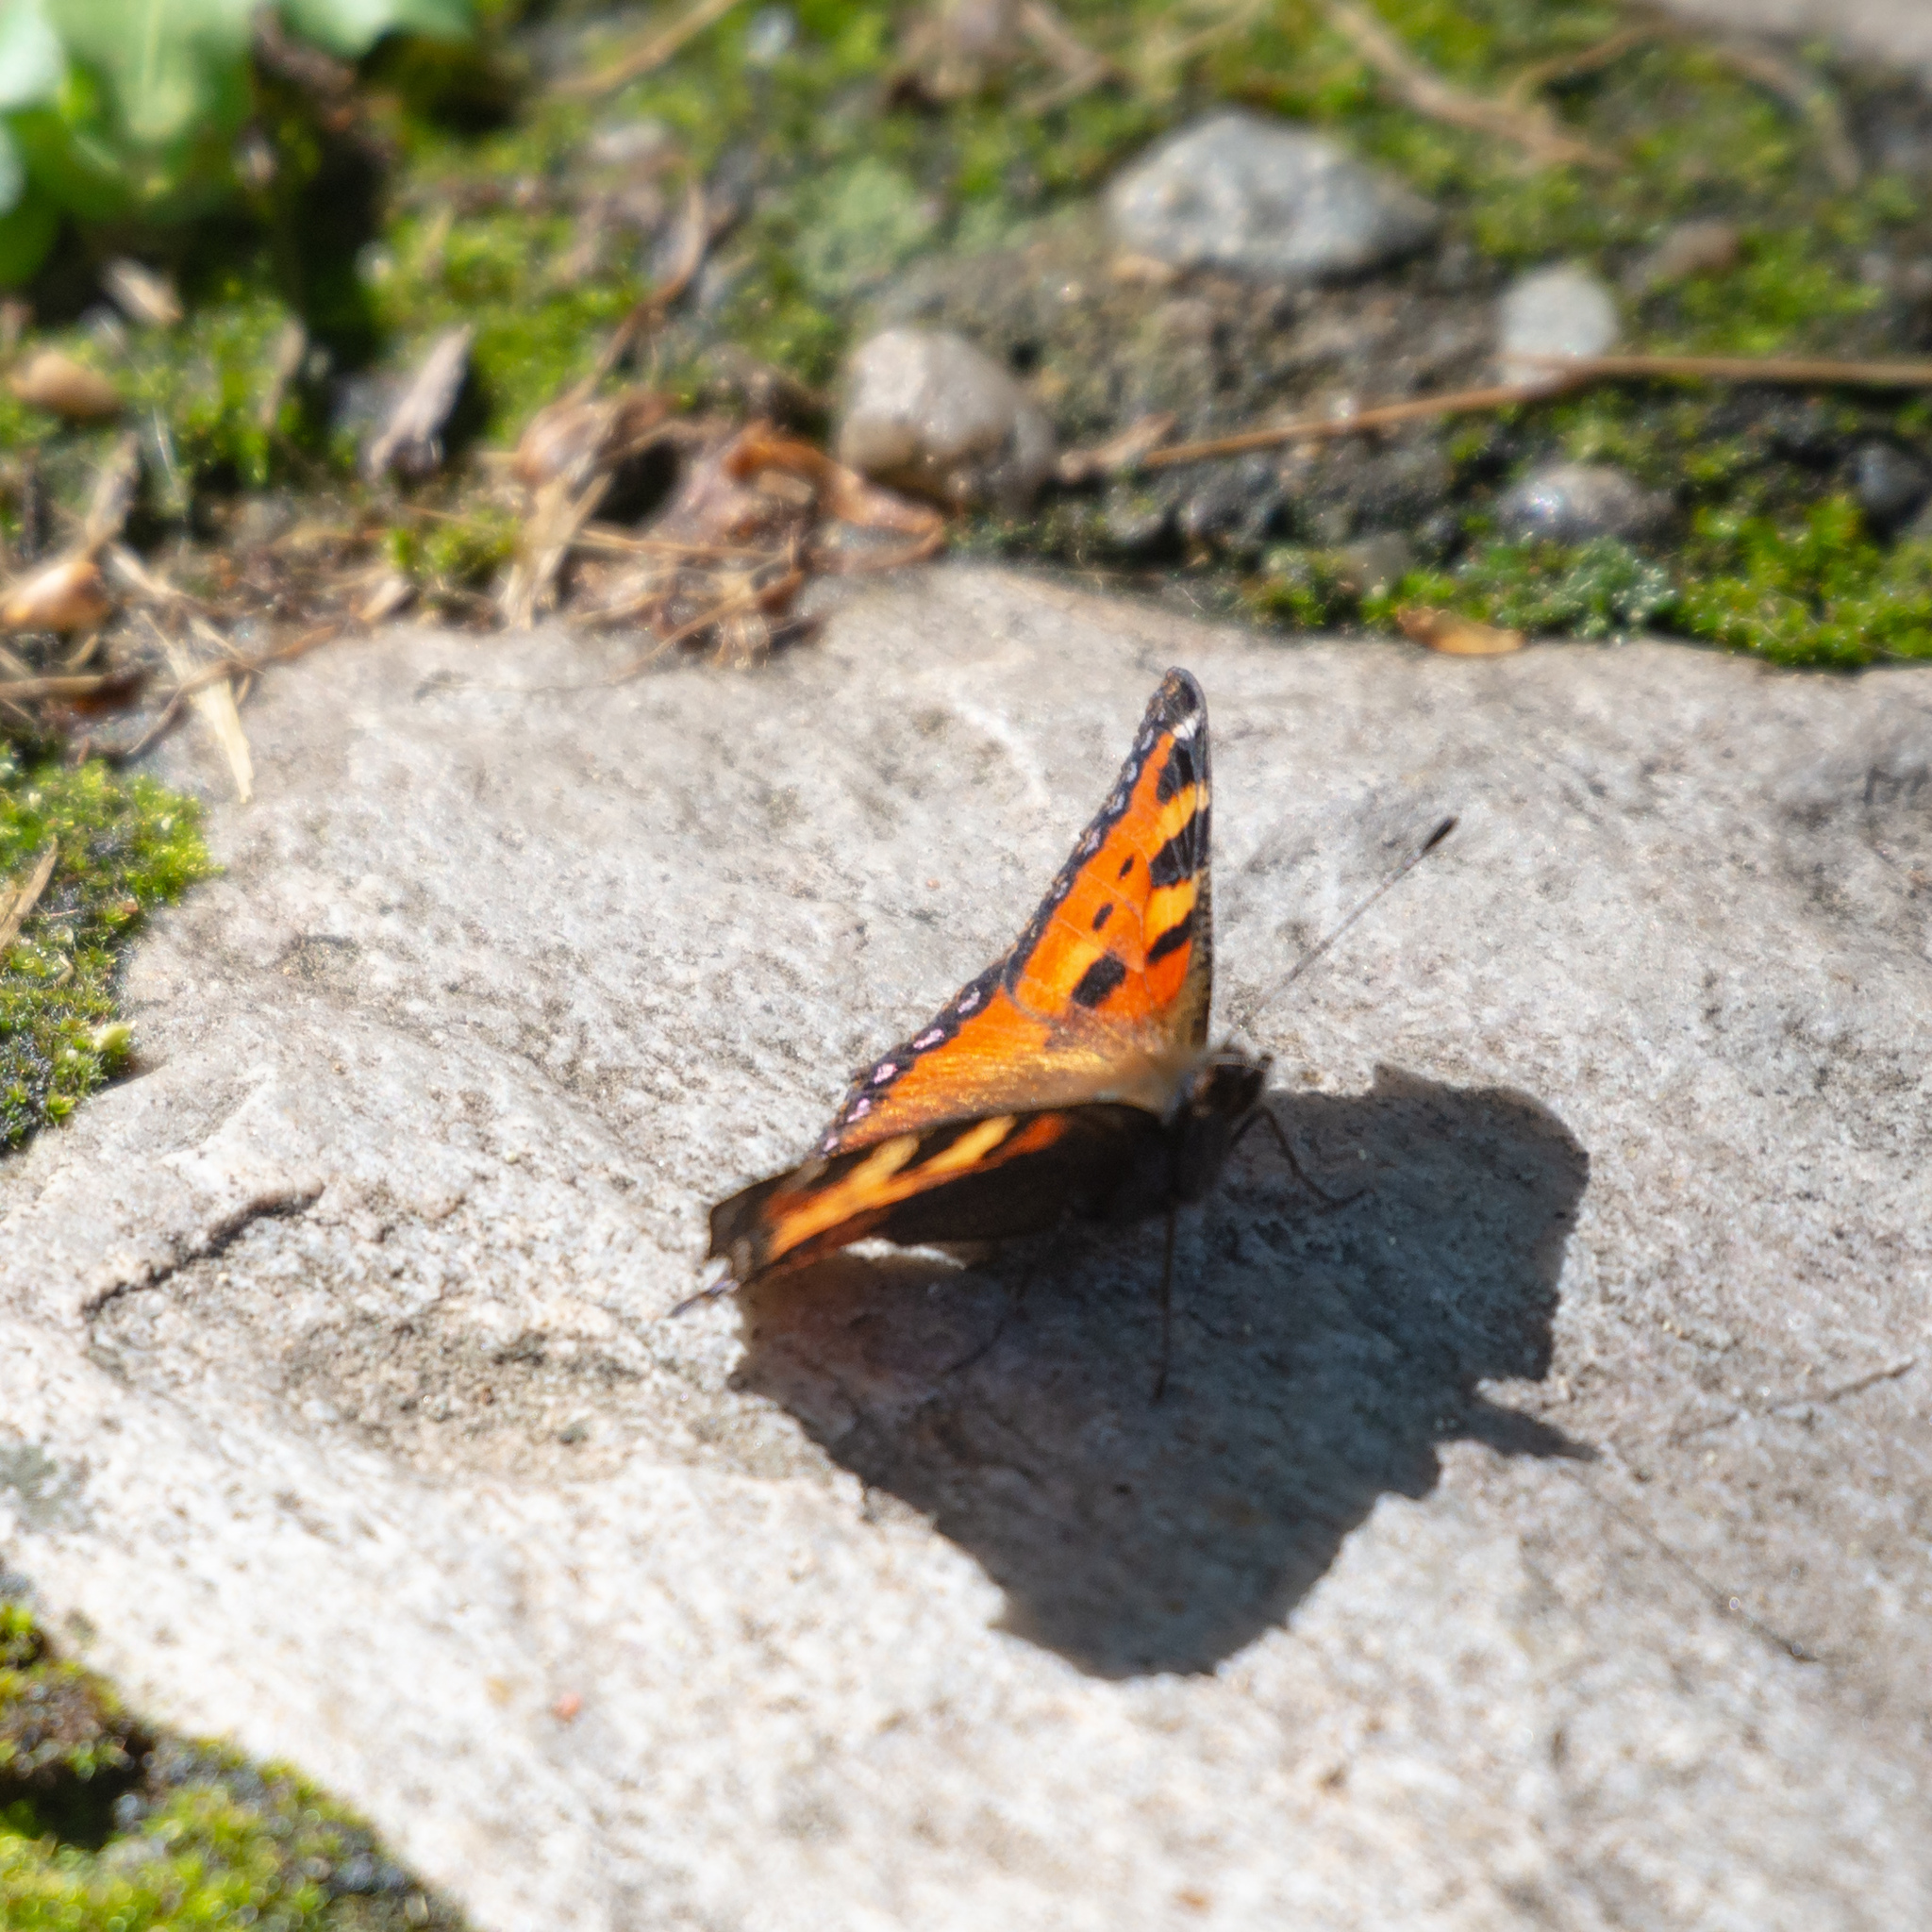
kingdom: Animalia
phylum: Arthropoda
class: Insecta
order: Lepidoptera
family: Nymphalidae
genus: Aglais
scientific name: Aglais urticae
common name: Small tortoiseshell
